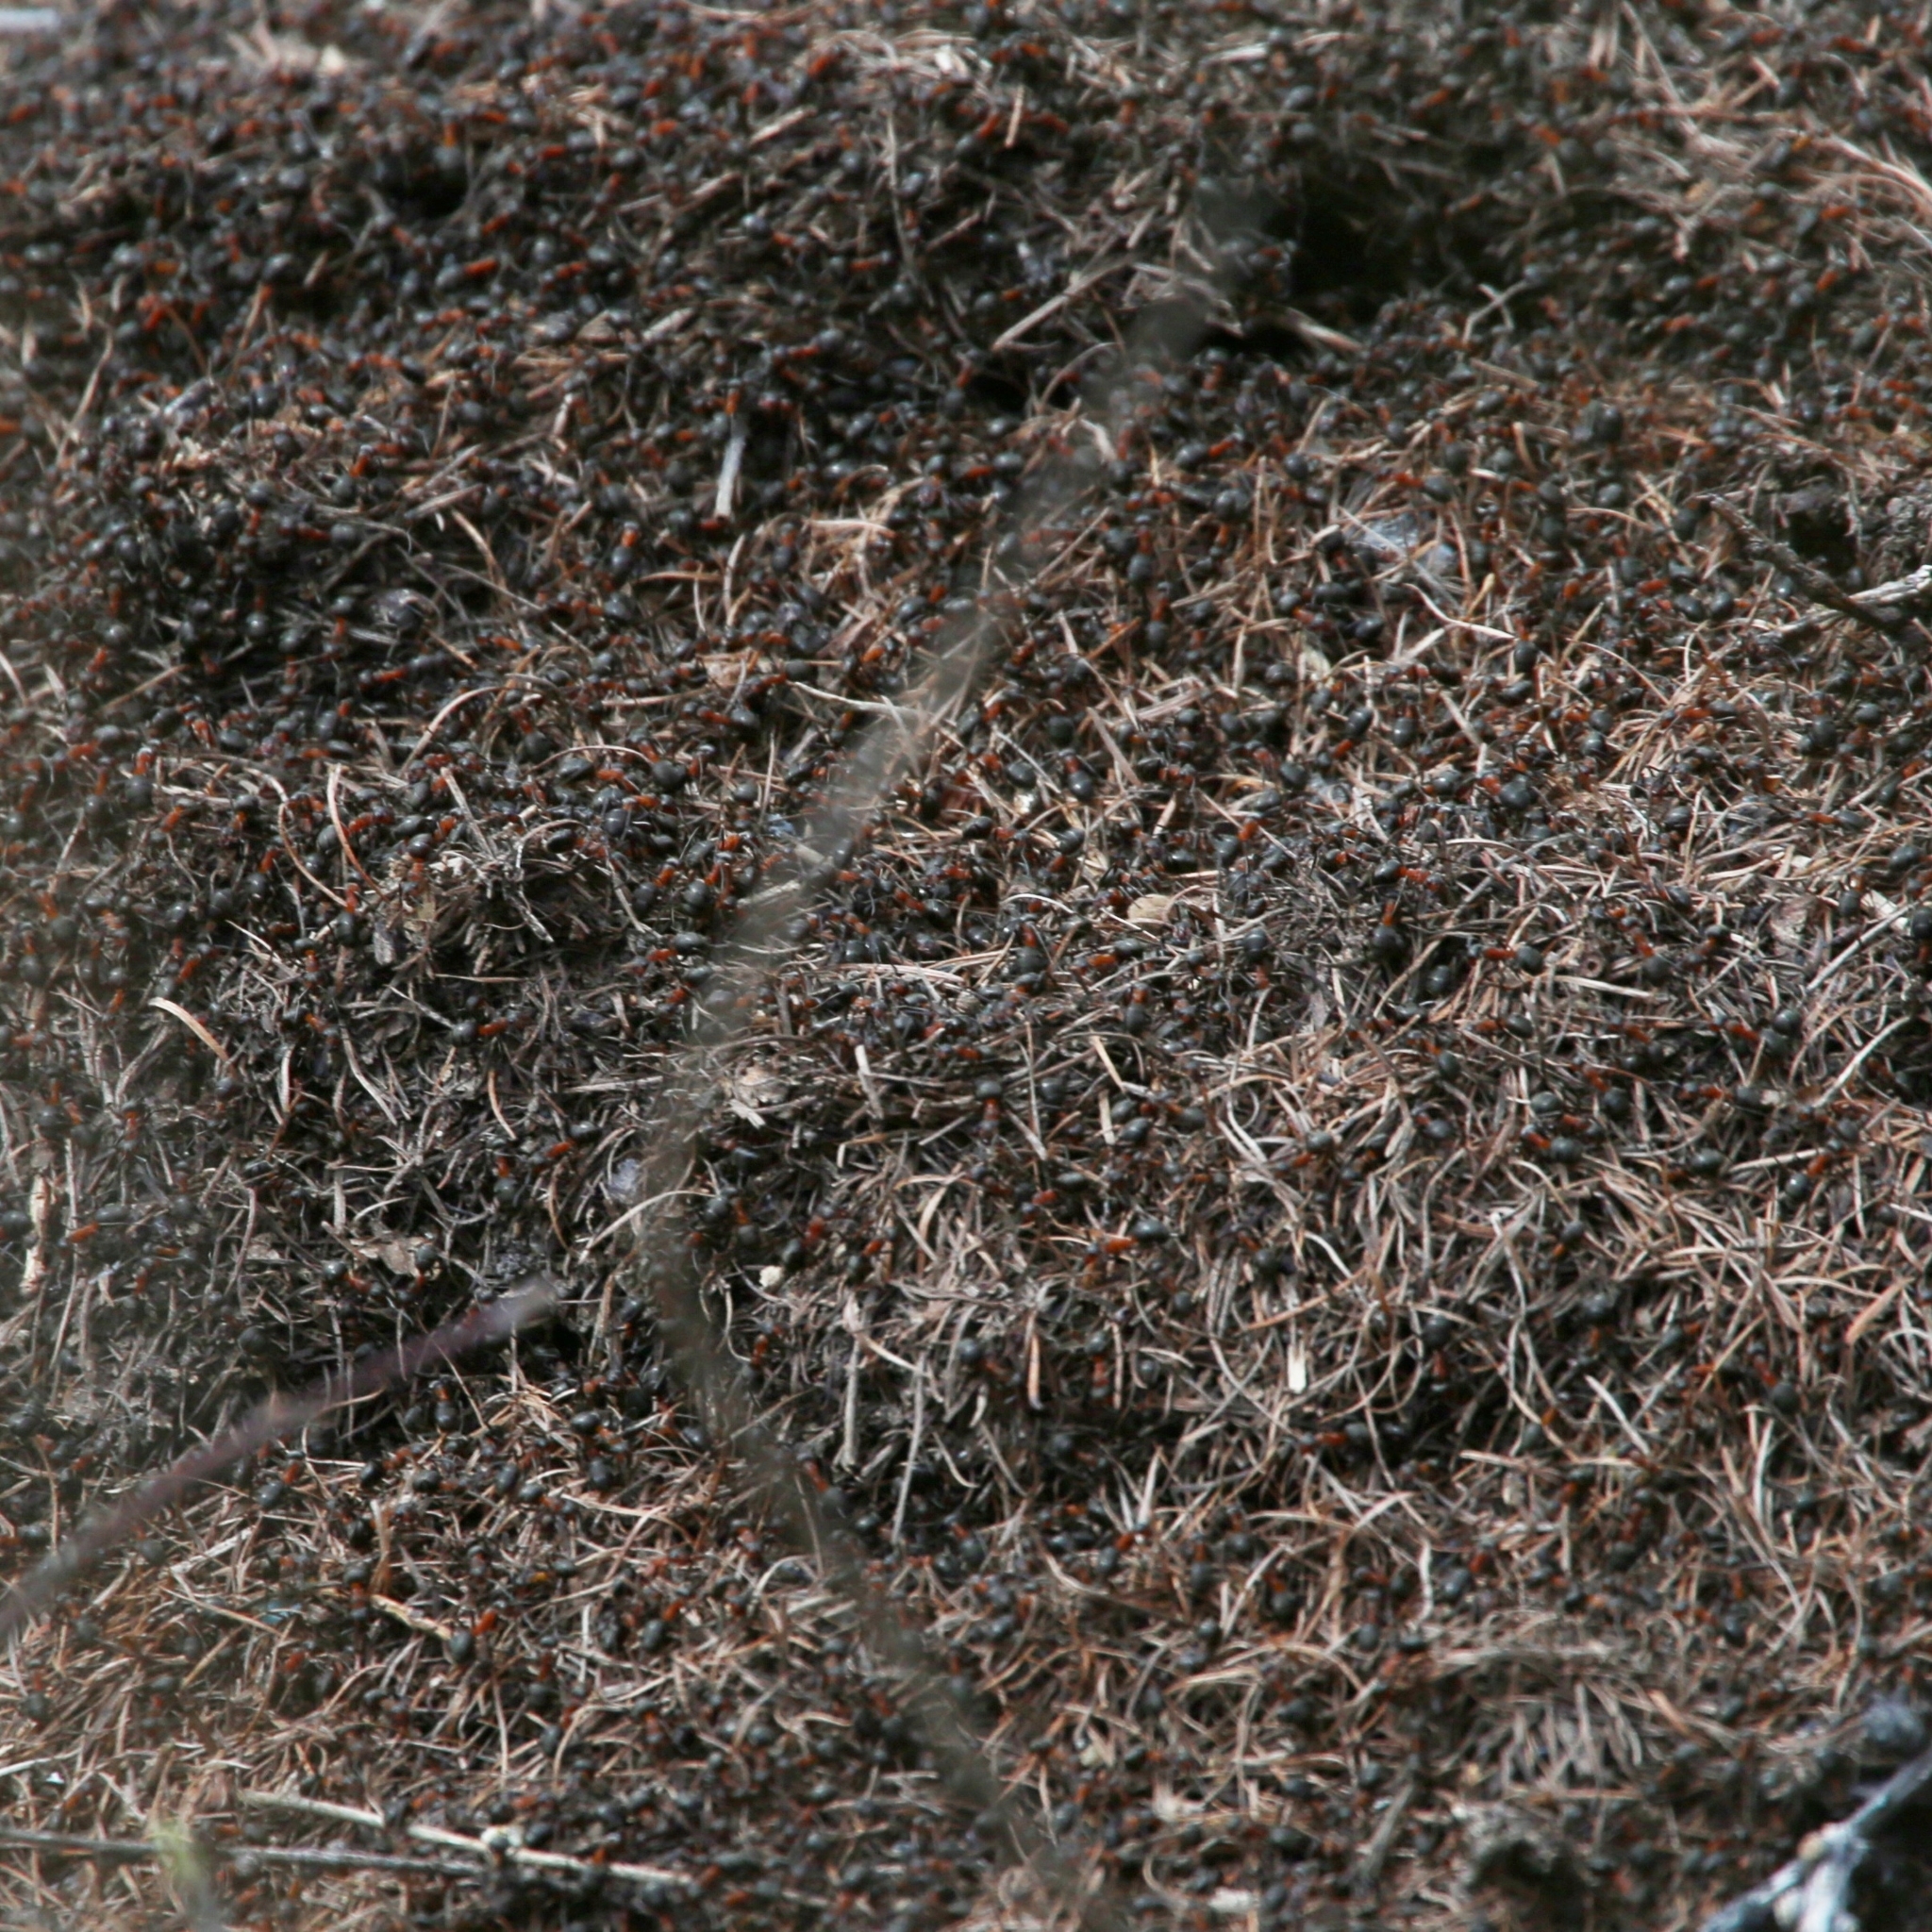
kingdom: Animalia
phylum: Arthropoda
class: Insecta
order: Hymenoptera
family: Formicidae
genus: Formica
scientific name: Formica
